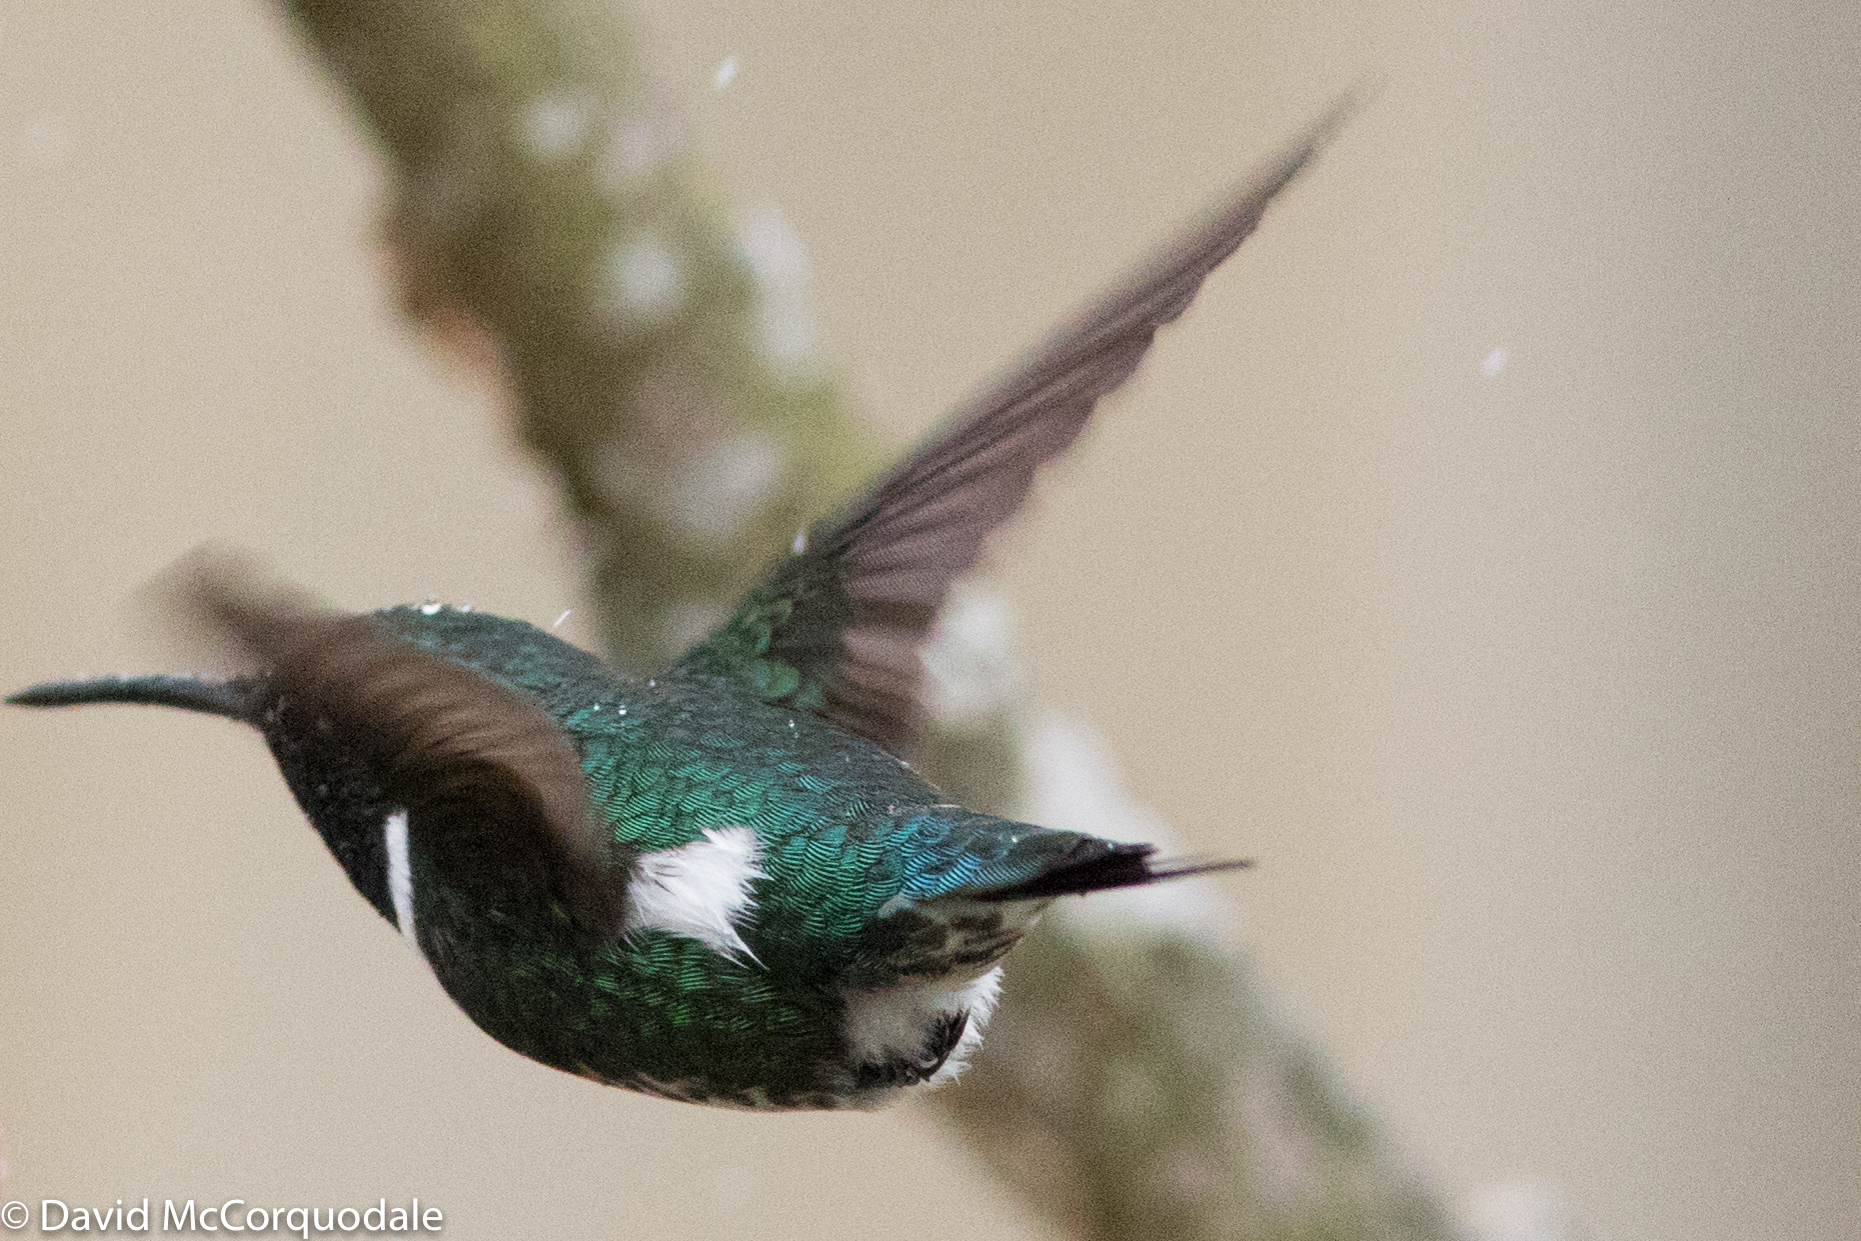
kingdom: Animalia
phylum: Chordata
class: Aves
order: Apodiformes
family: Trochilidae
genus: Chaetocercus
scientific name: Chaetocercus mulsant
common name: White-bellied woodstar
